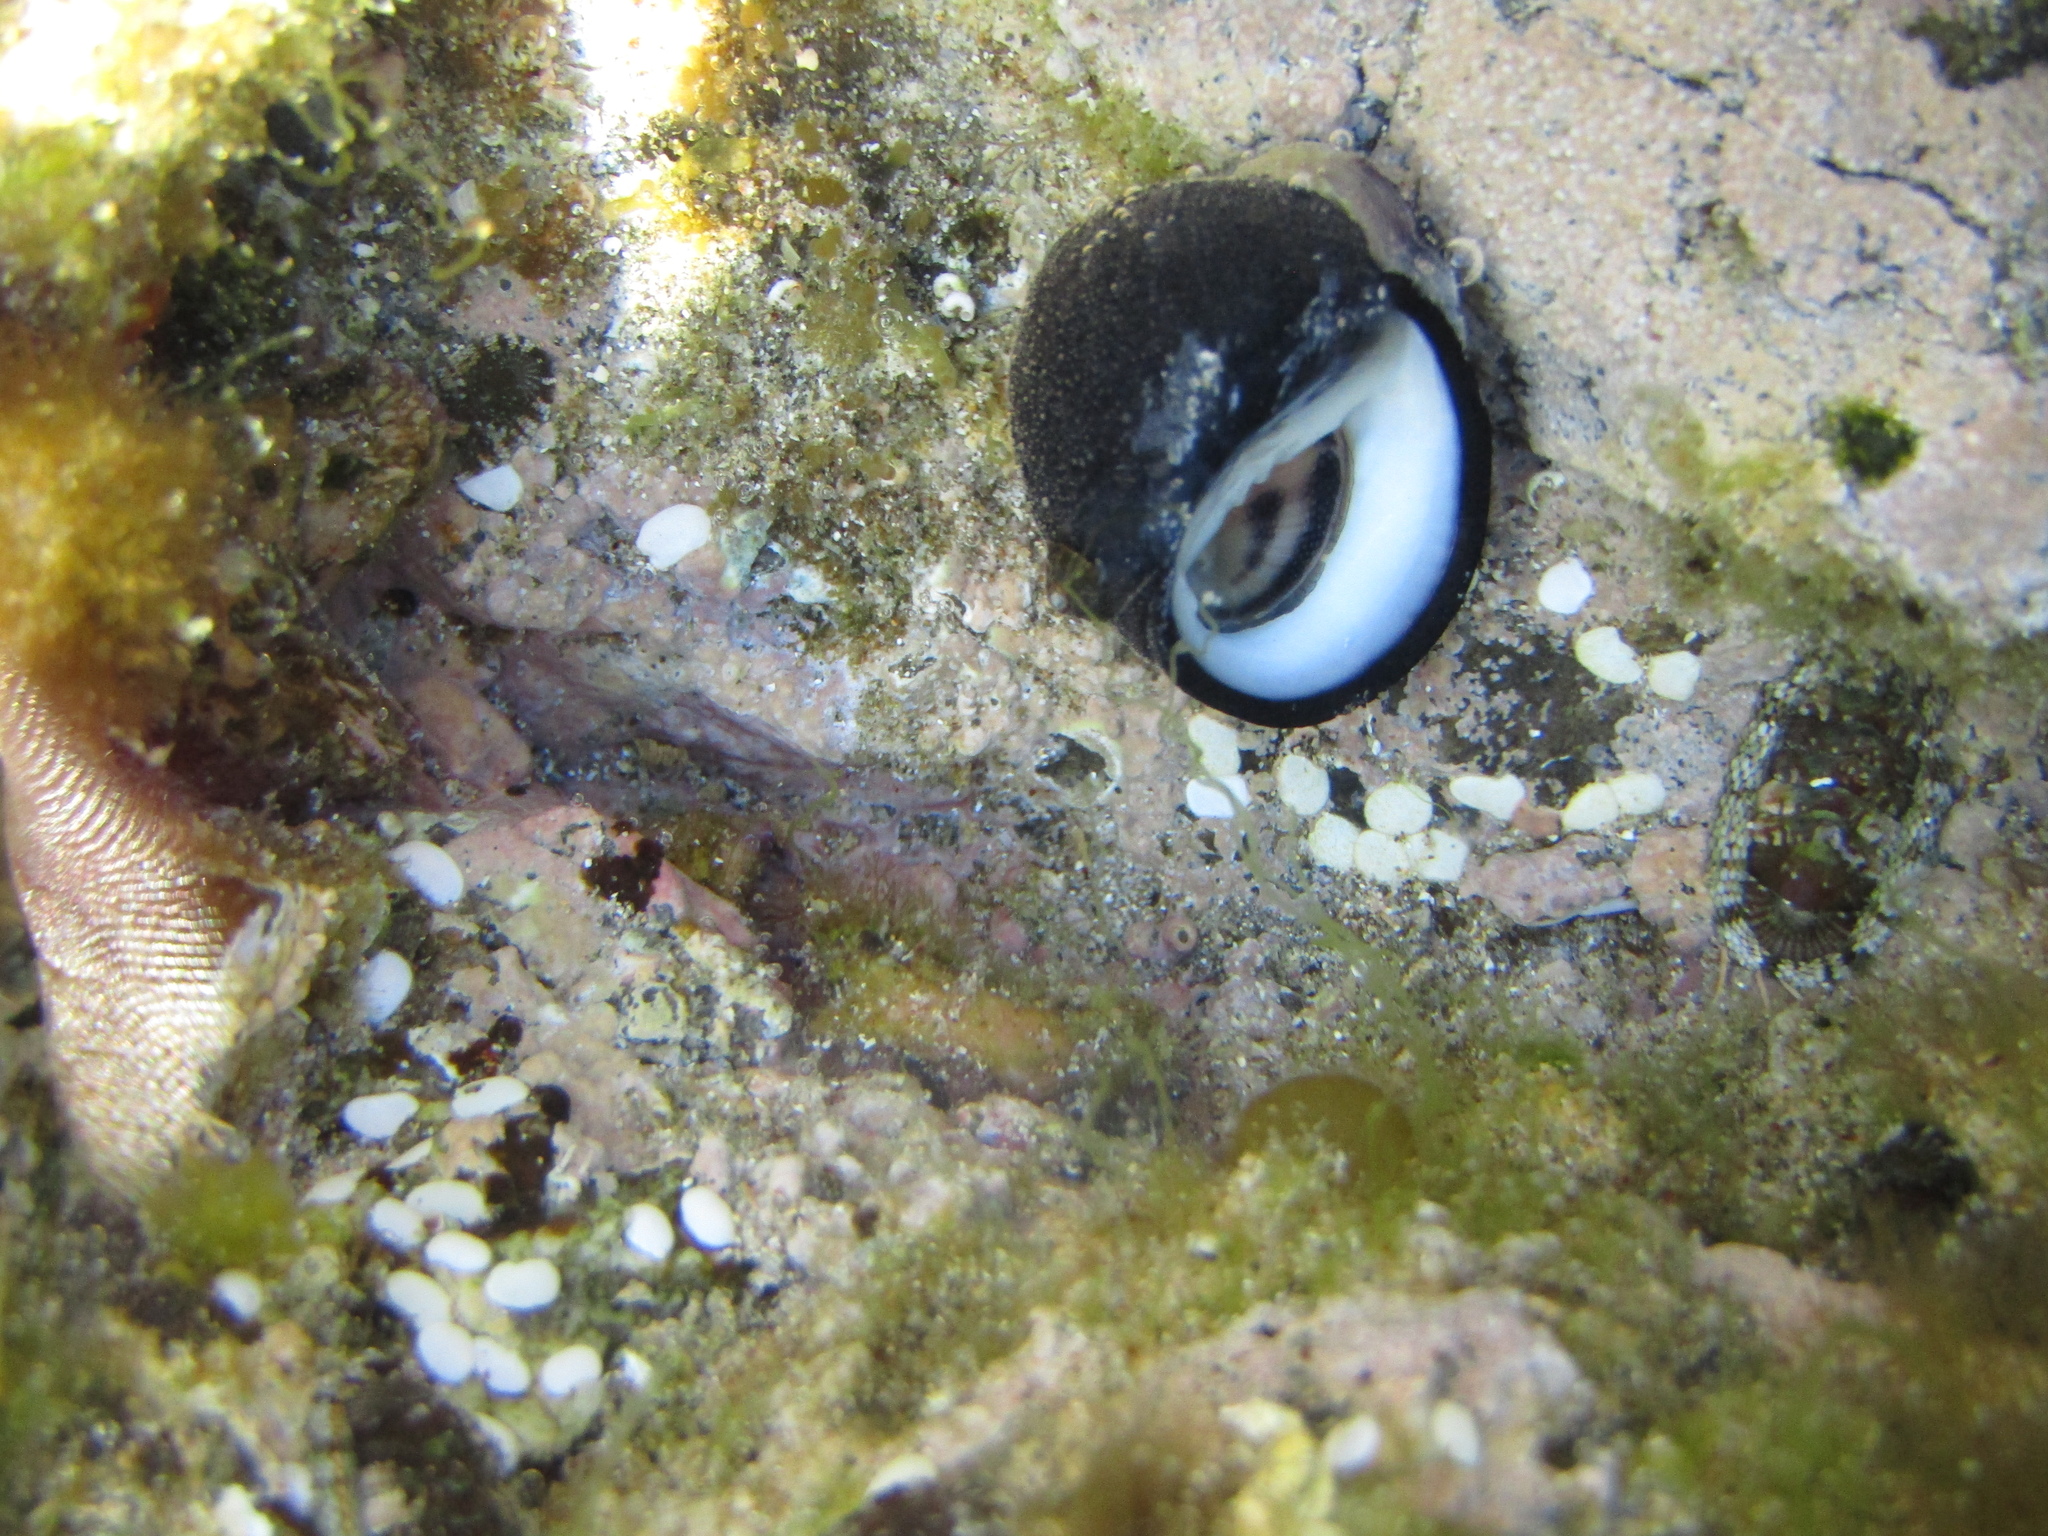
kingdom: Animalia
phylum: Mollusca
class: Gastropoda
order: Cycloneritida
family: Neritidae
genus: Nerita
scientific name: Nerita melanotragus
